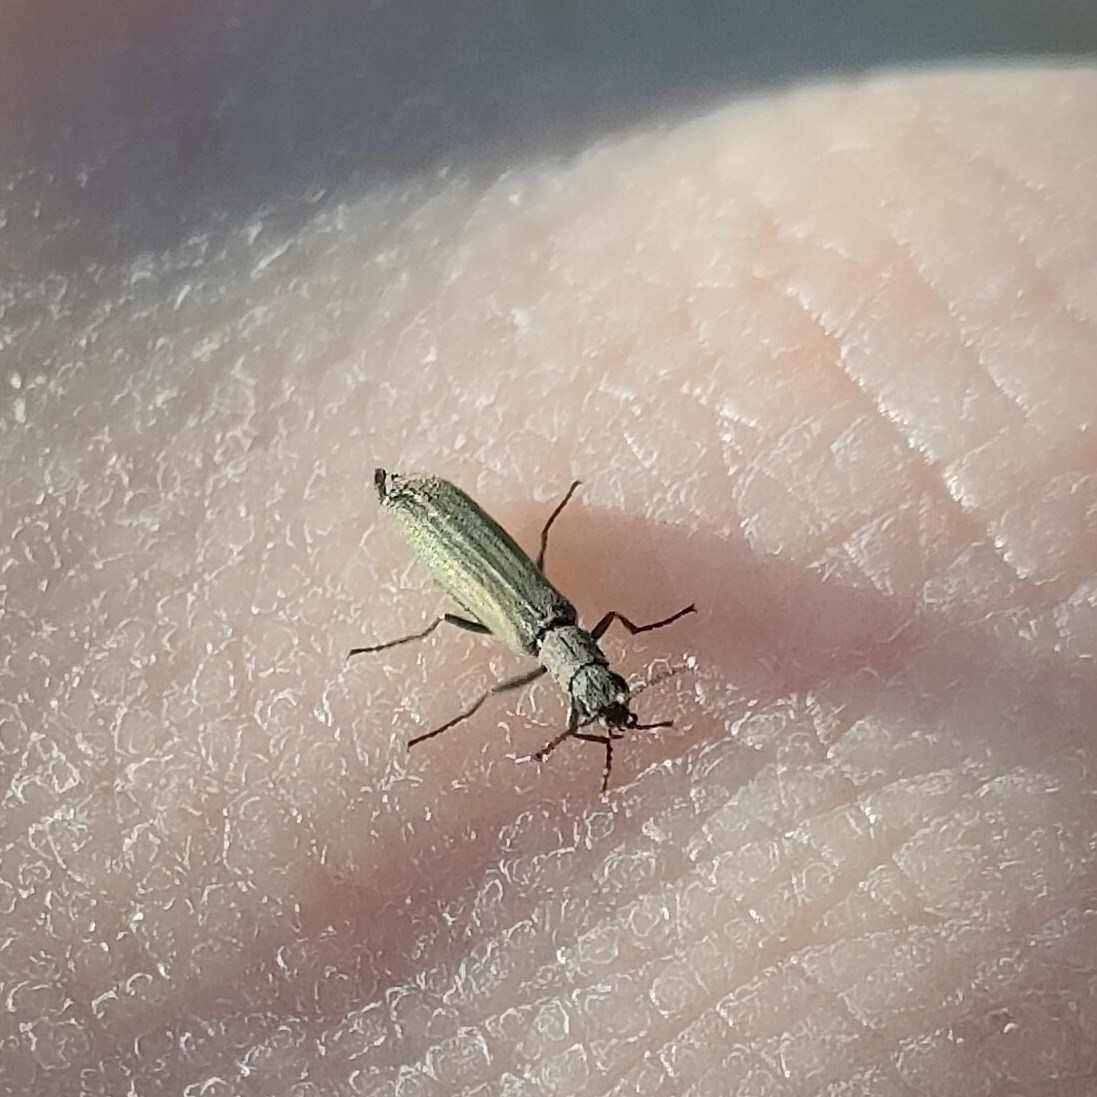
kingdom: Animalia
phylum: Arthropoda
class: Insecta
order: Coleoptera
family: Melyridae
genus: Dolichosoma
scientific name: Dolichosoma lineare
